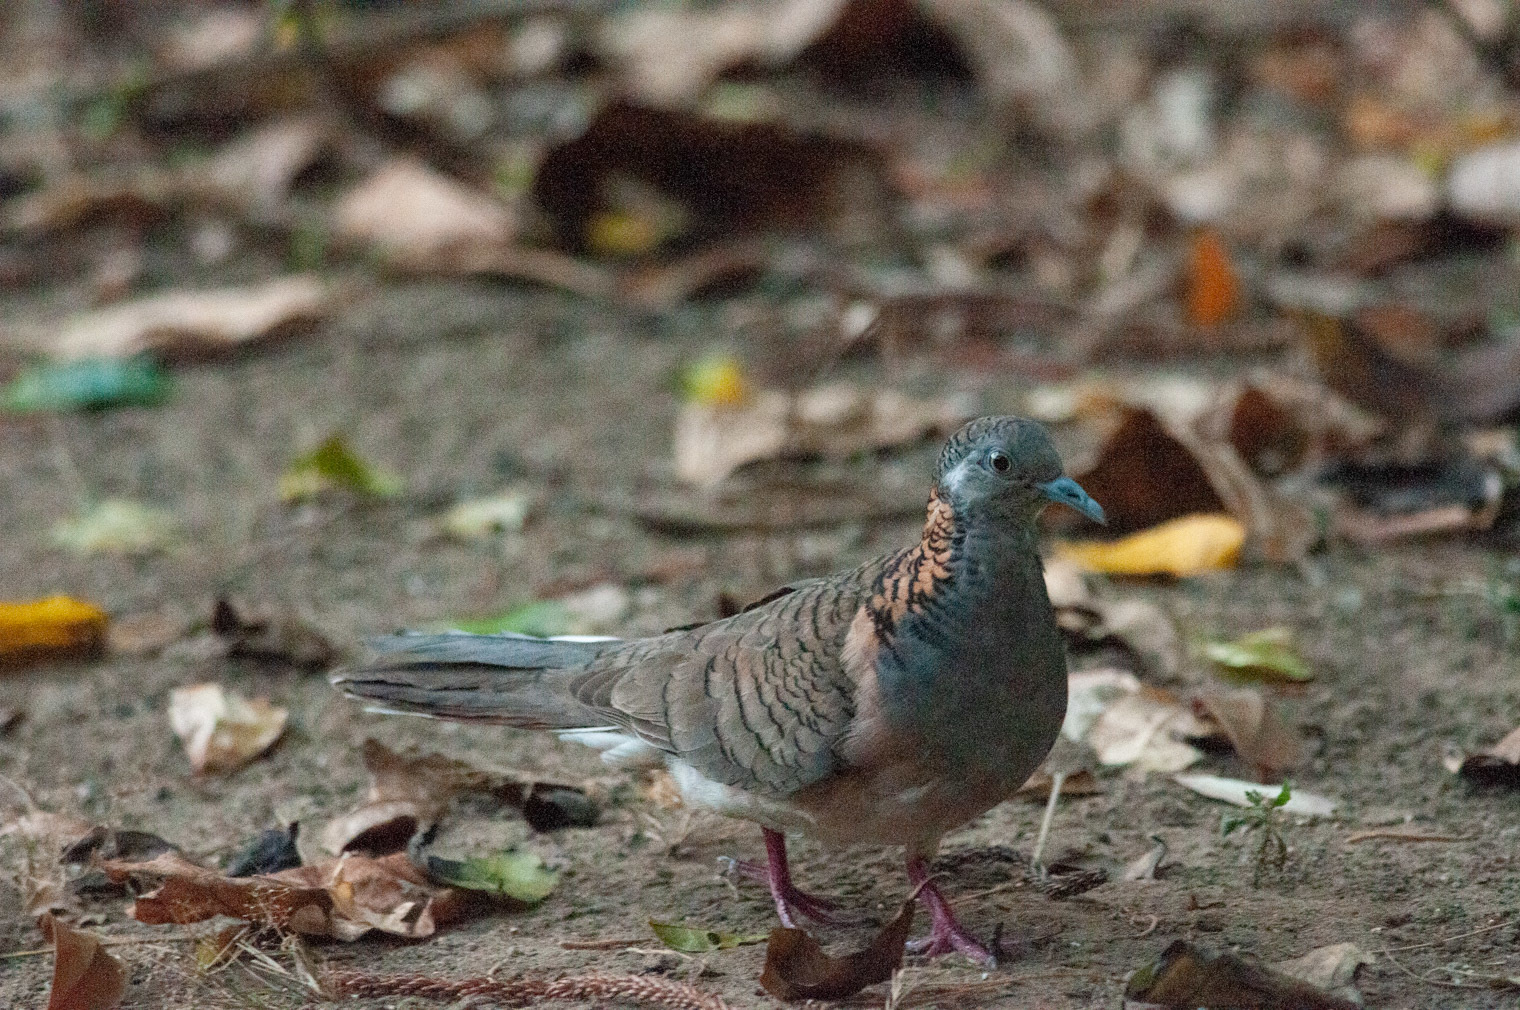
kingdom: Animalia
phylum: Chordata
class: Aves
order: Columbiformes
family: Columbidae
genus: Geopelia
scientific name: Geopelia humeralis
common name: Bar-shouldered dove
